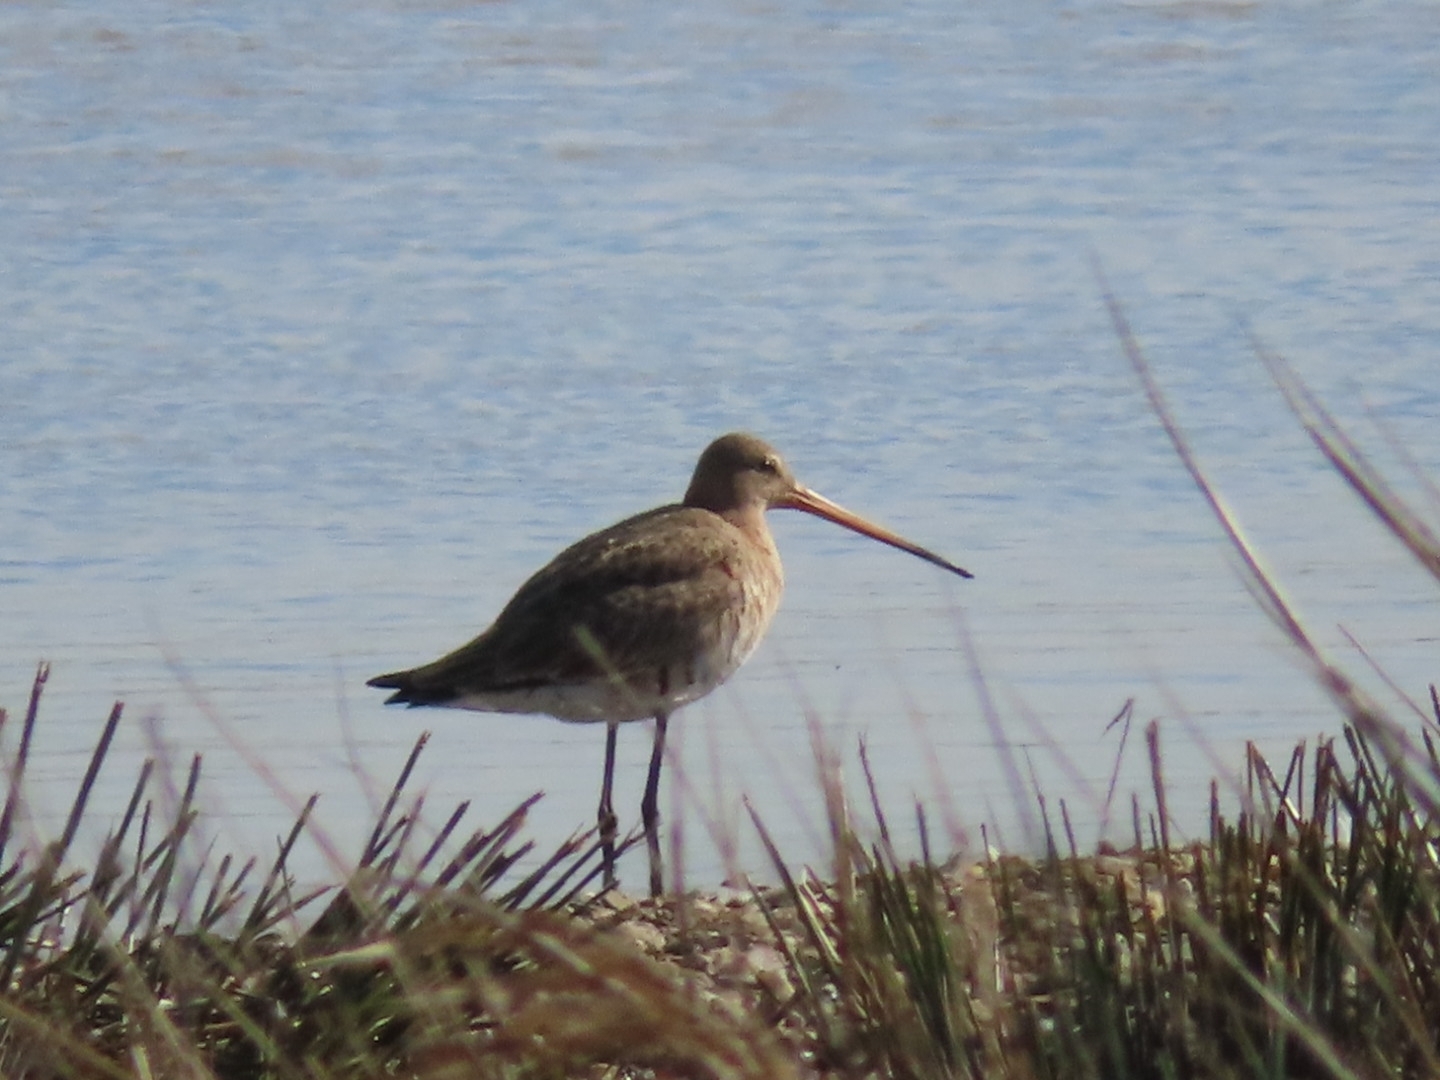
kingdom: Animalia
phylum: Chordata
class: Aves
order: Charadriiformes
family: Scolopacidae
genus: Limosa
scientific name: Limosa limosa
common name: Black-tailed godwit
